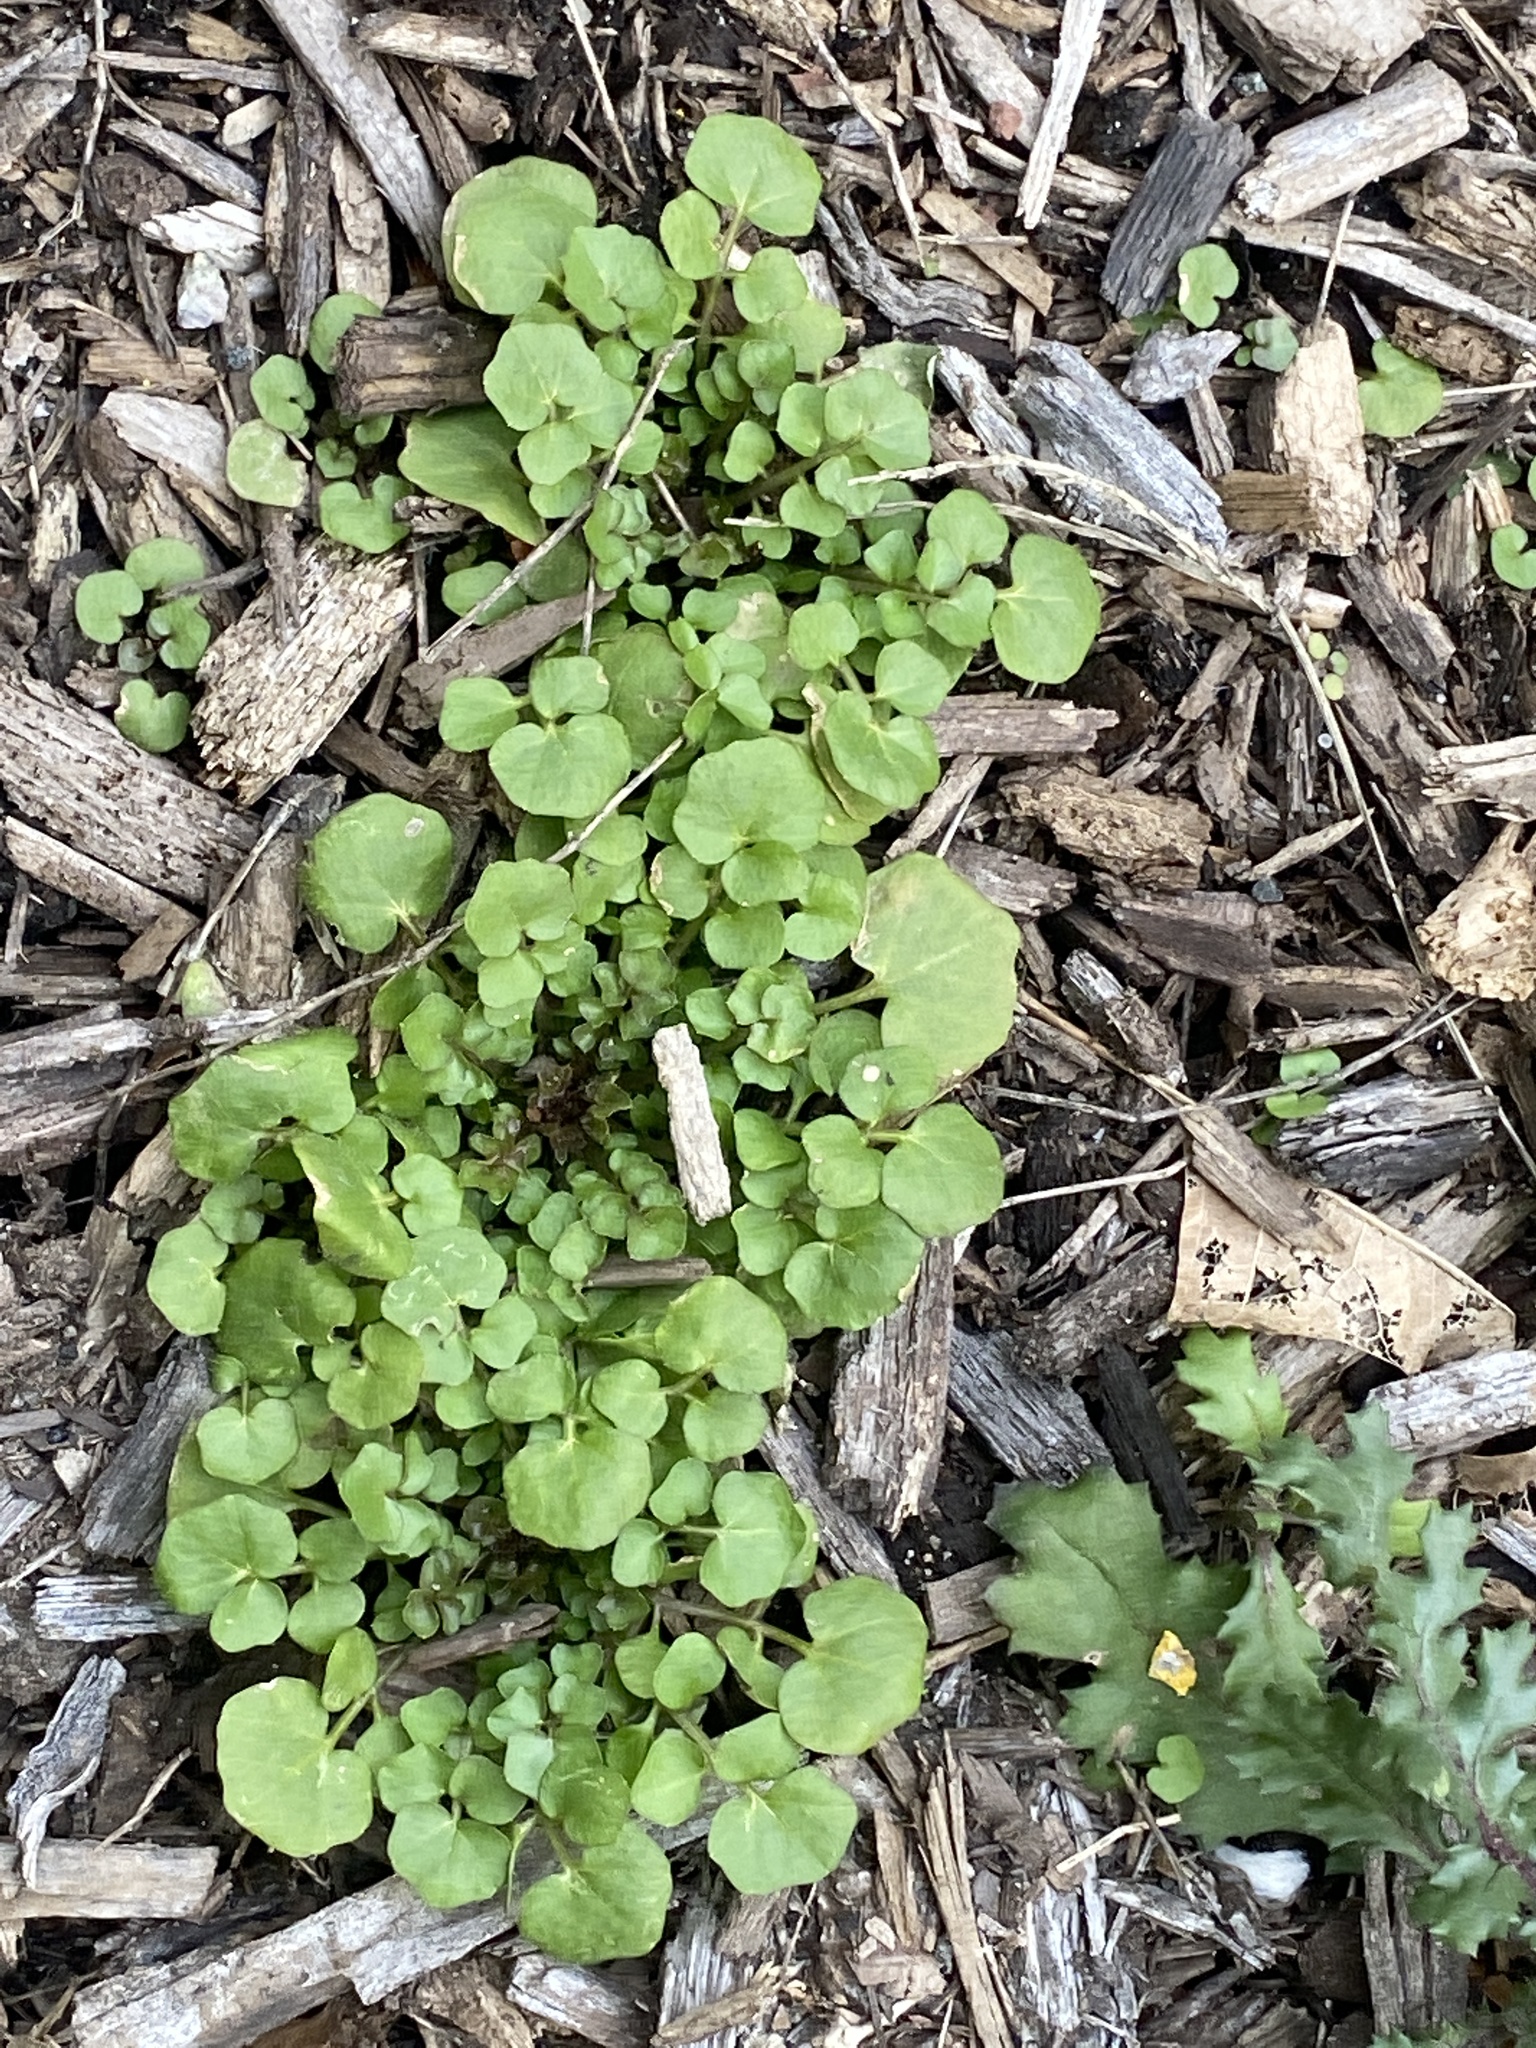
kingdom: Plantae
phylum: Tracheophyta
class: Magnoliopsida
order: Brassicales
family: Brassicaceae
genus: Cardamine
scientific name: Cardamine hirsuta
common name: Hairy bittercress
